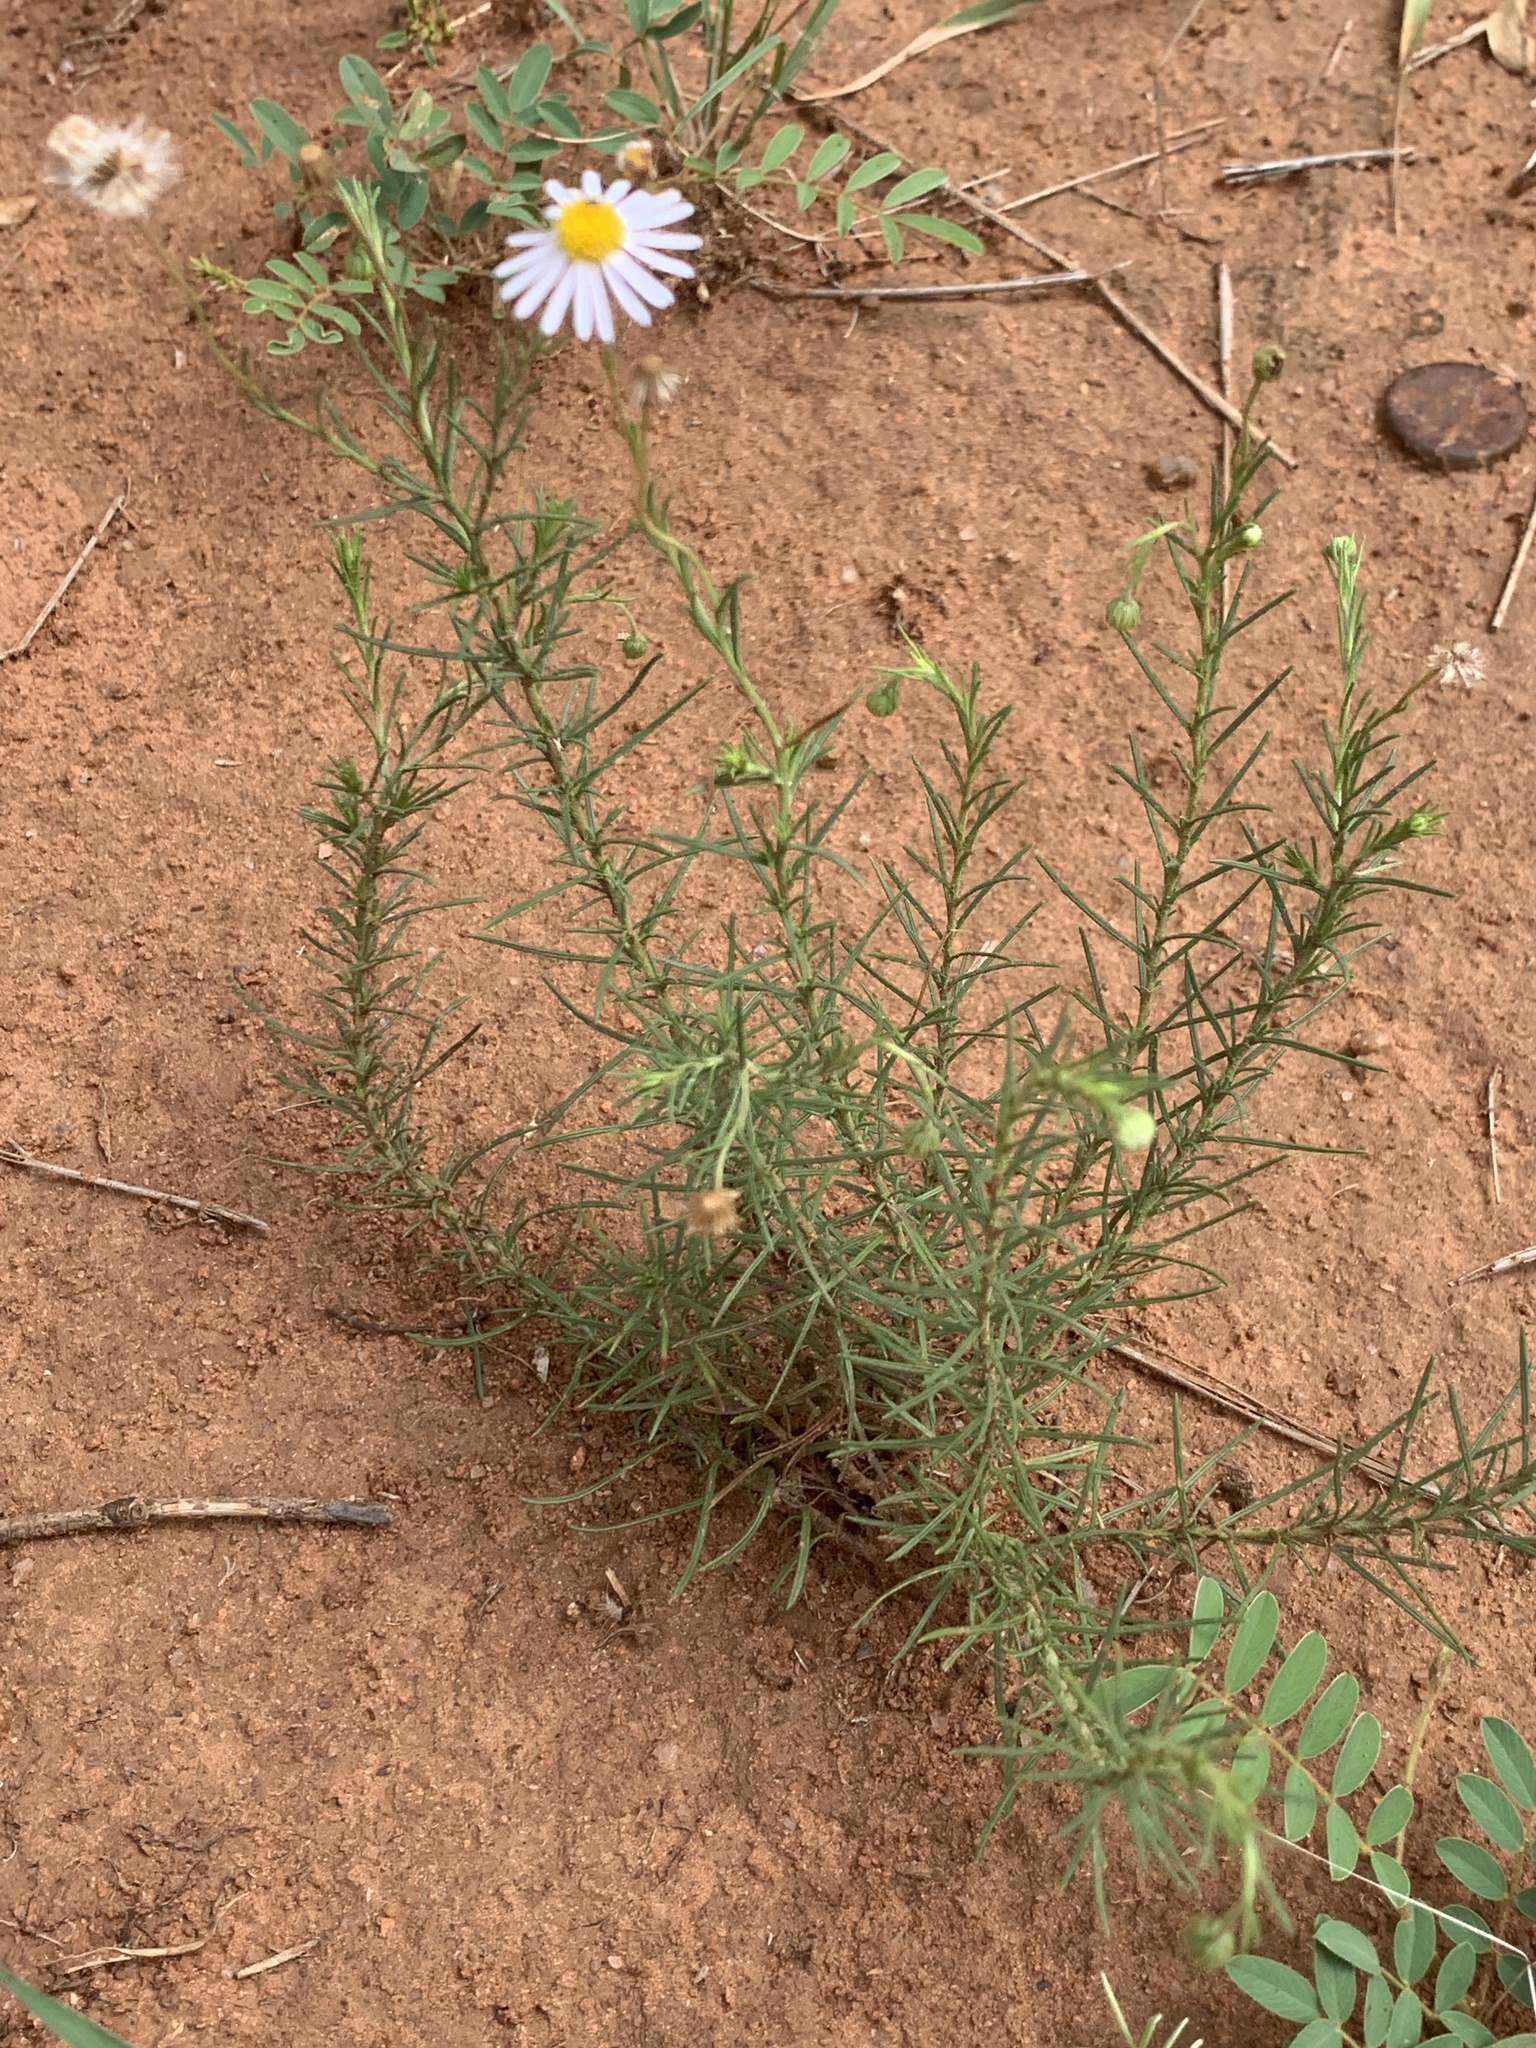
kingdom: Plantae
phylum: Tracheophyta
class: Magnoliopsida
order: Asterales
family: Asteraceae
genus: Felicia
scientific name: Felicia muricata
